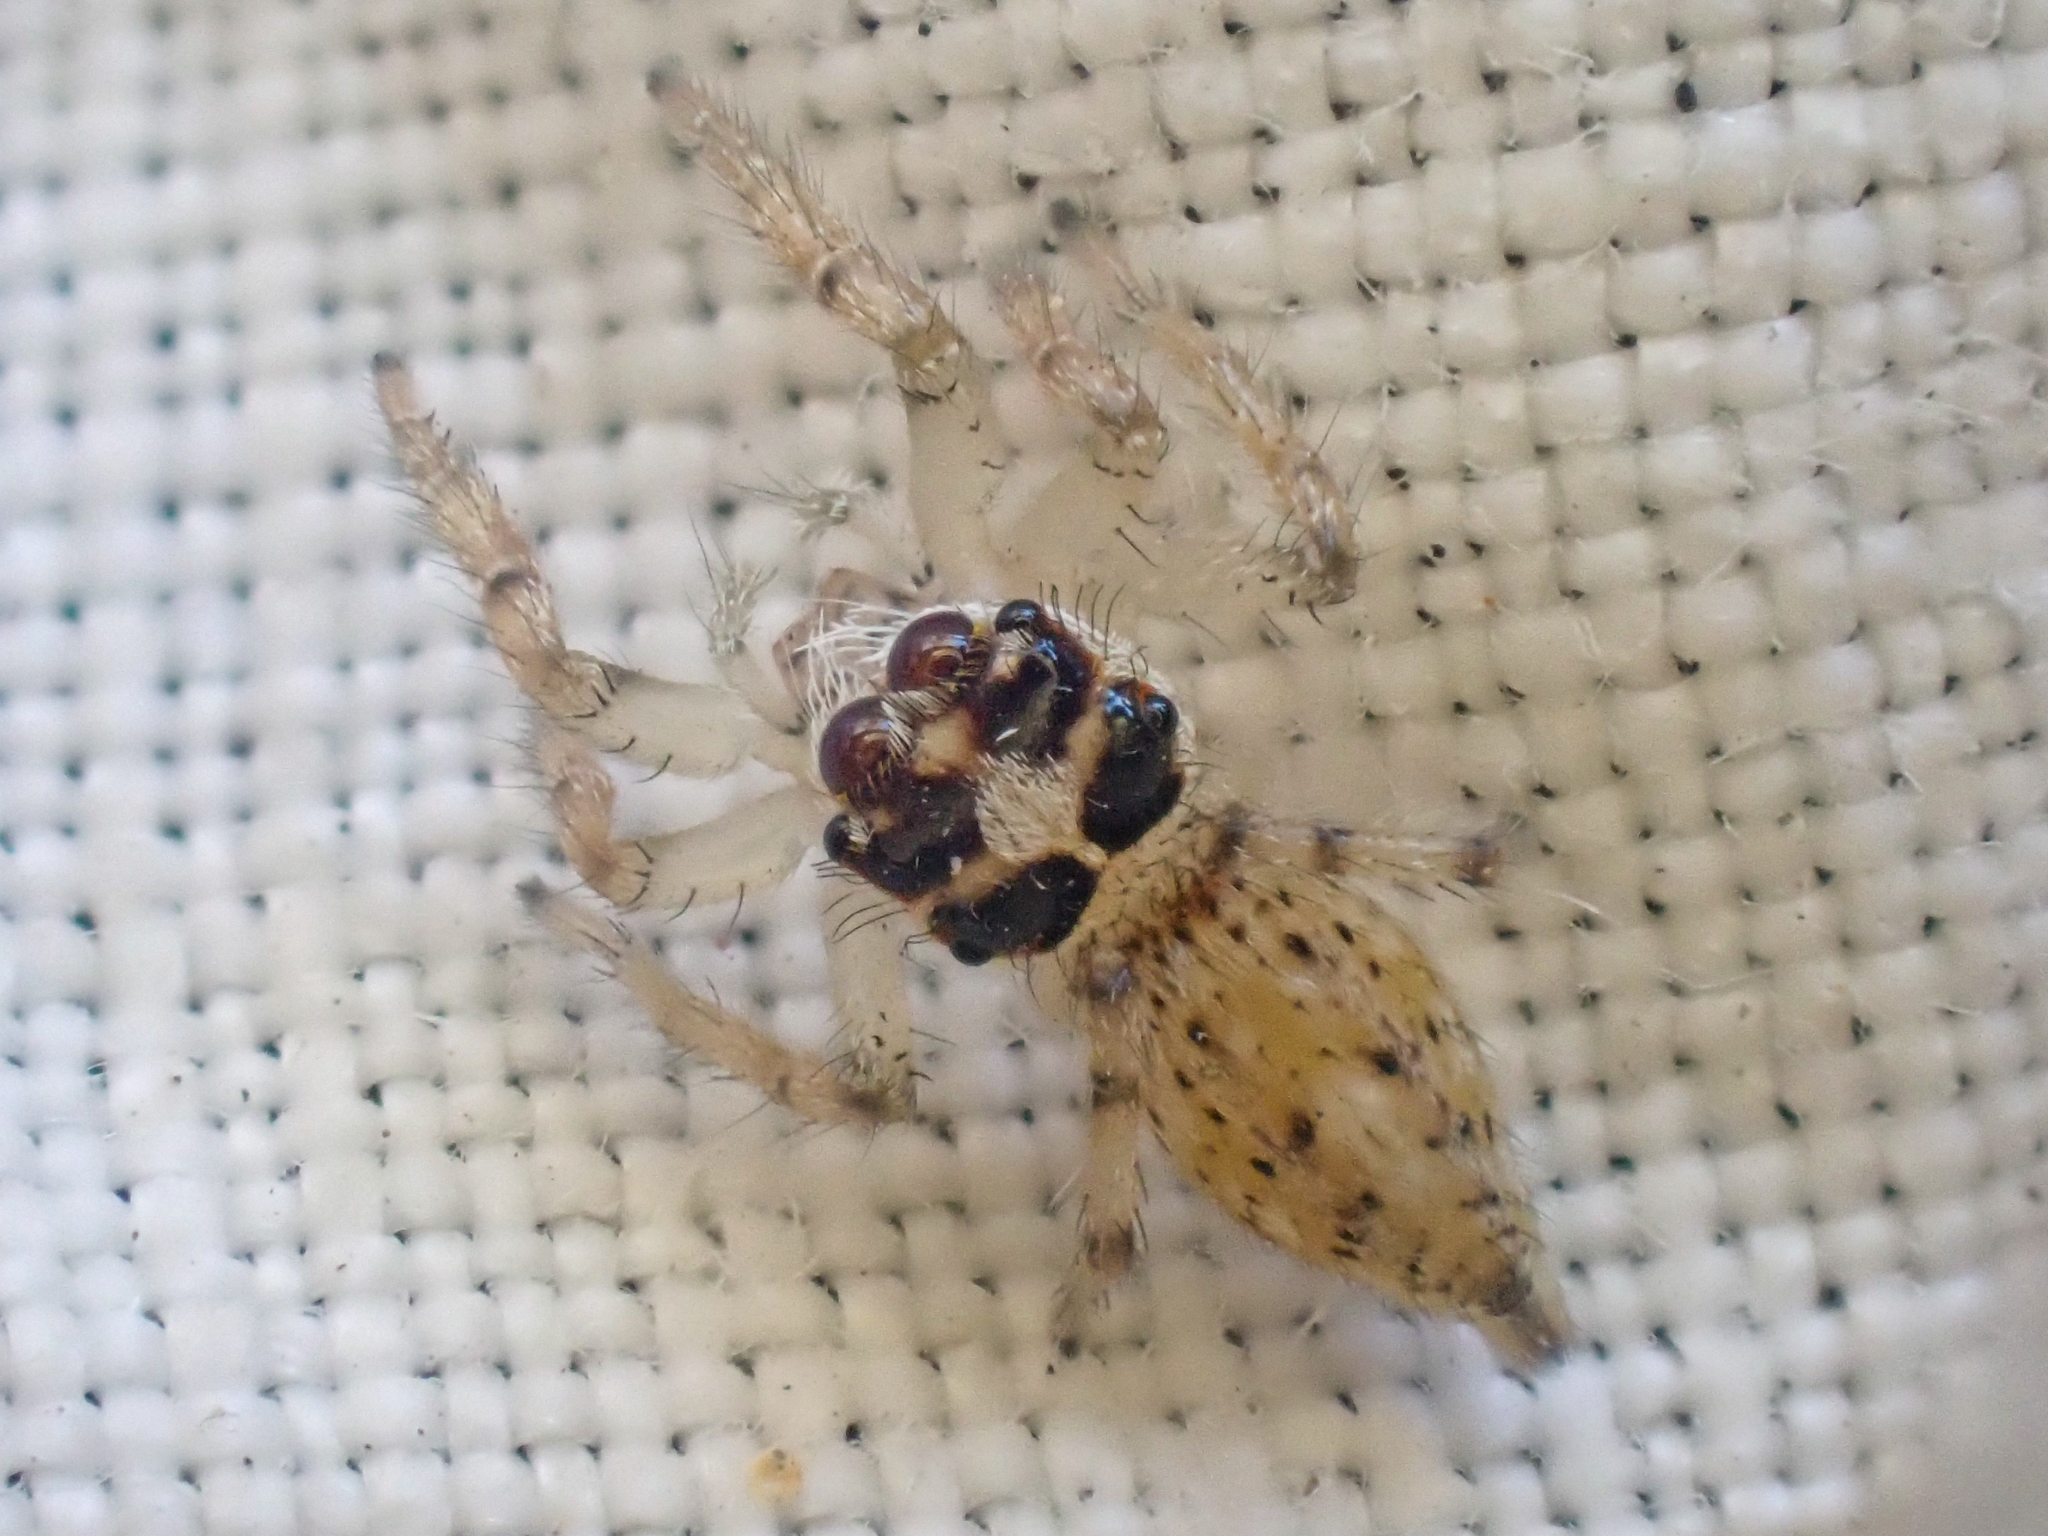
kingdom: Animalia
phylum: Arthropoda
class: Arachnida
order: Araneae
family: Salticidae
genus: Colonus
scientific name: Colonus hesperus
